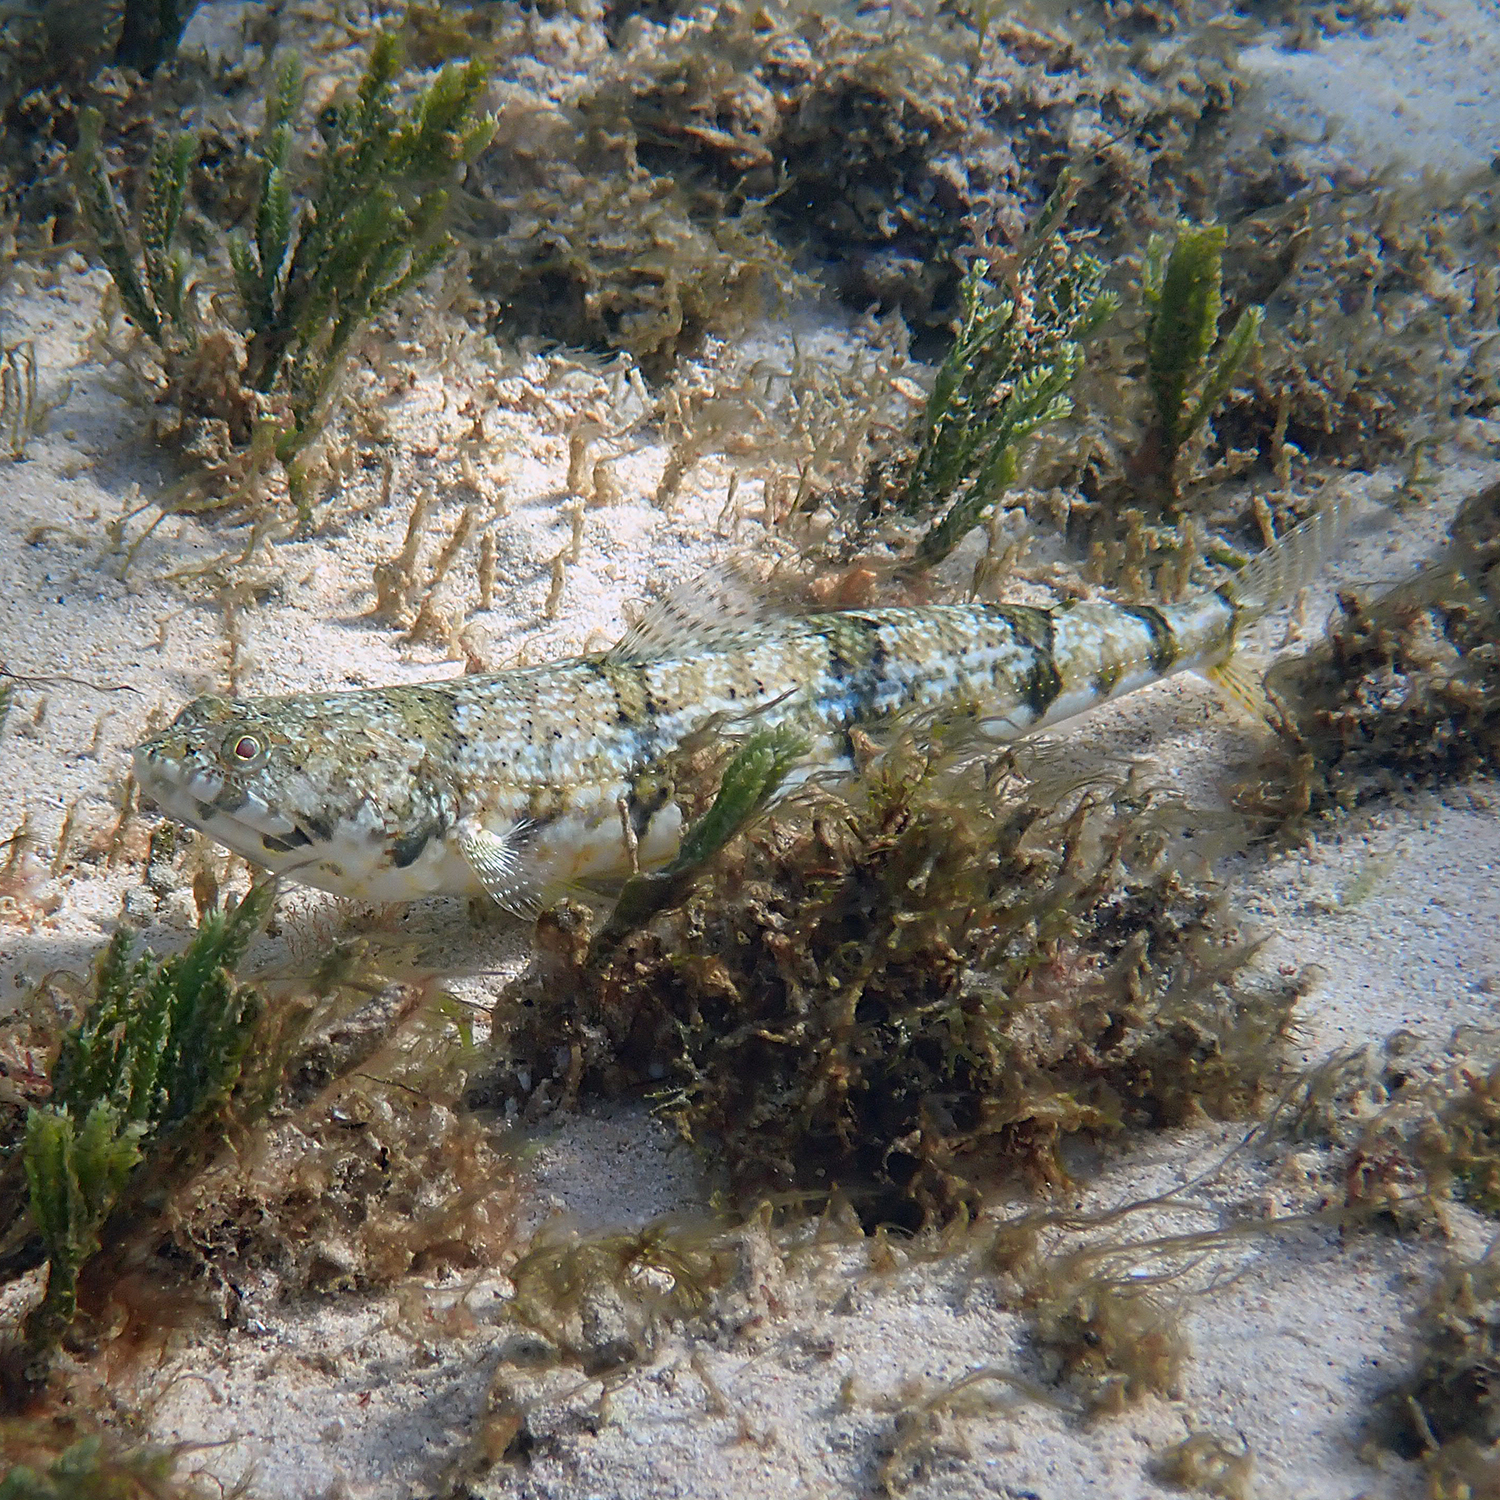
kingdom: Animalia
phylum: Chordata
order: Aulopiformes
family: Synodontidae
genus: Synodus
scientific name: Synodus dermatogenys
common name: Banded lizardfish
